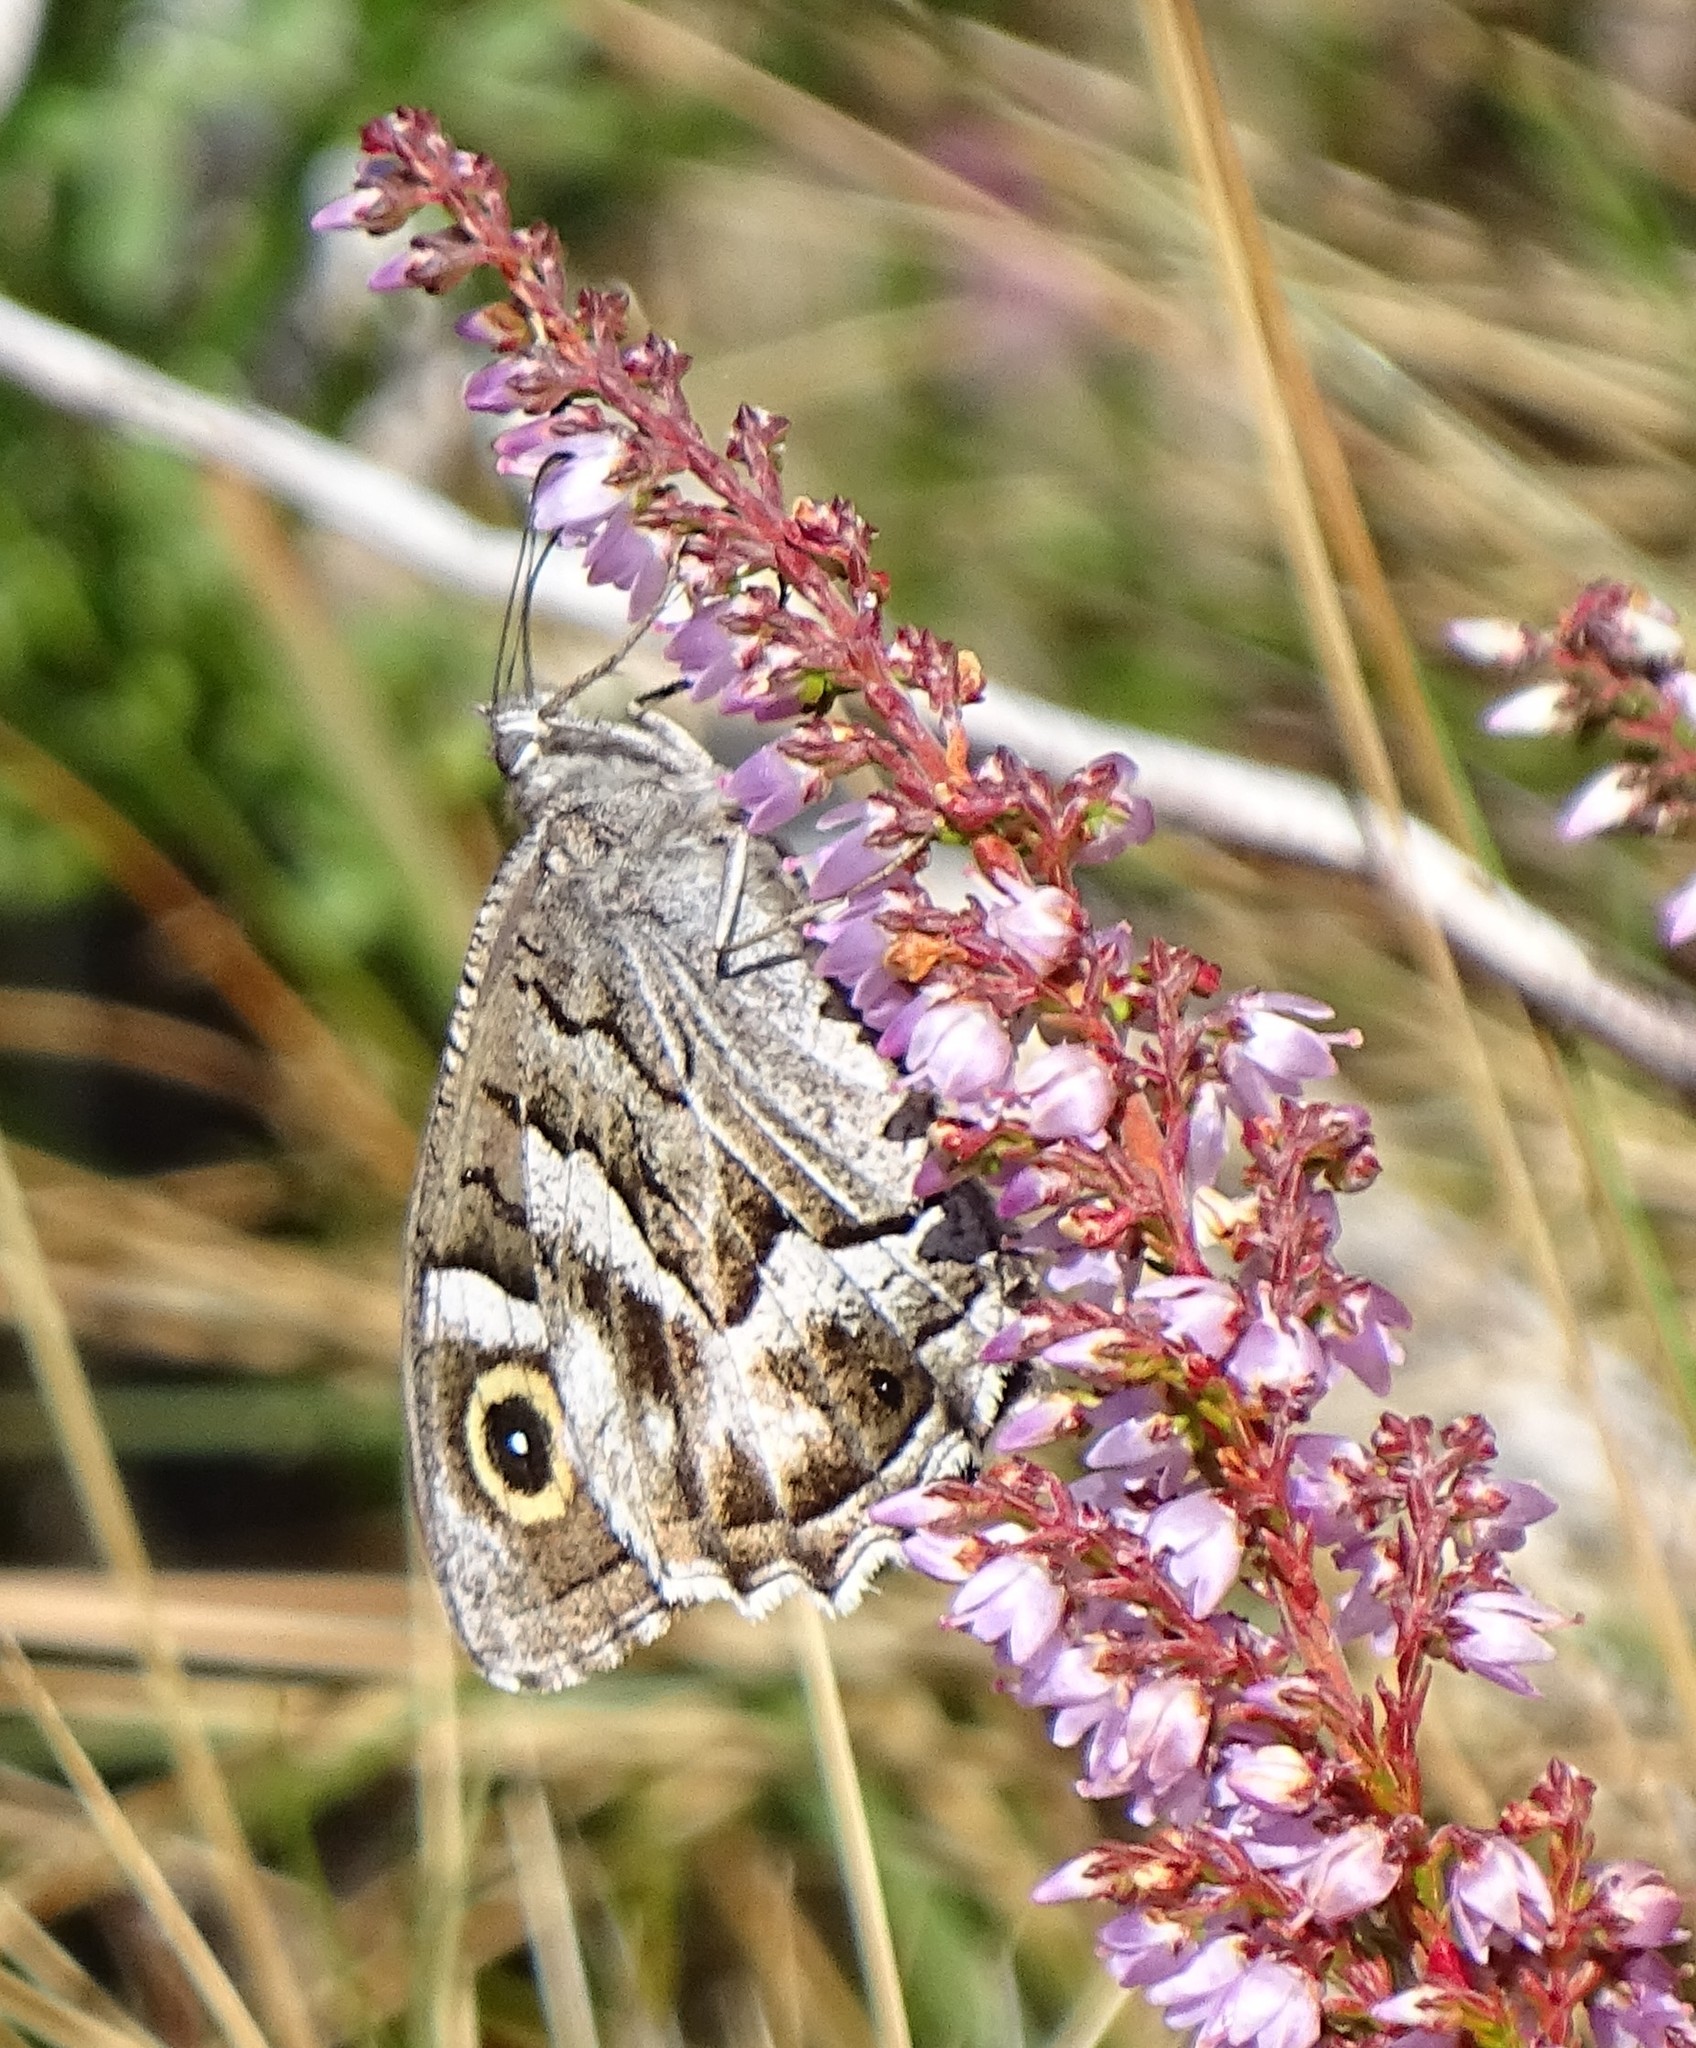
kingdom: Animalia
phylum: Arthropoda
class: Insecta
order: Lepidoptera
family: Nymphalidae
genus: Hipparchia
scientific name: Hipparchia fidia
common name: Striped grayling
